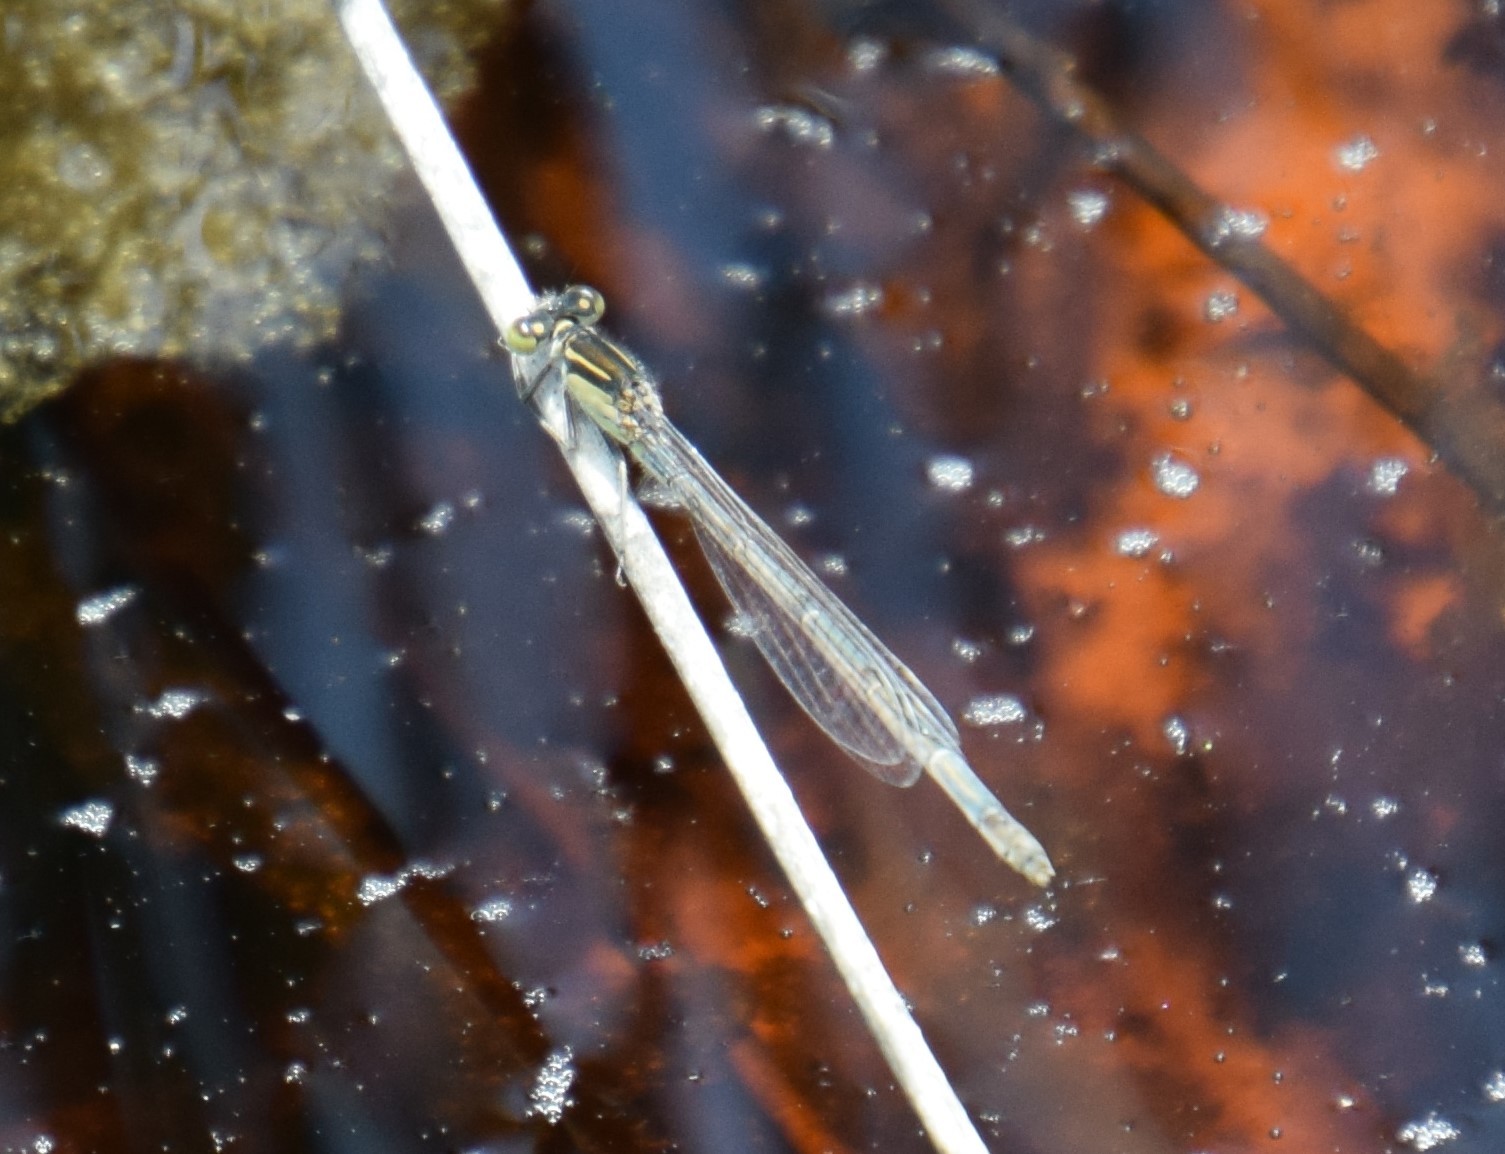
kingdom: Animalia
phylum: Arthropoda
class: Insecta
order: Odonata
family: Coenagrionidae
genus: Ischnura
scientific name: Ischnura heterosticta
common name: Common bluetail
